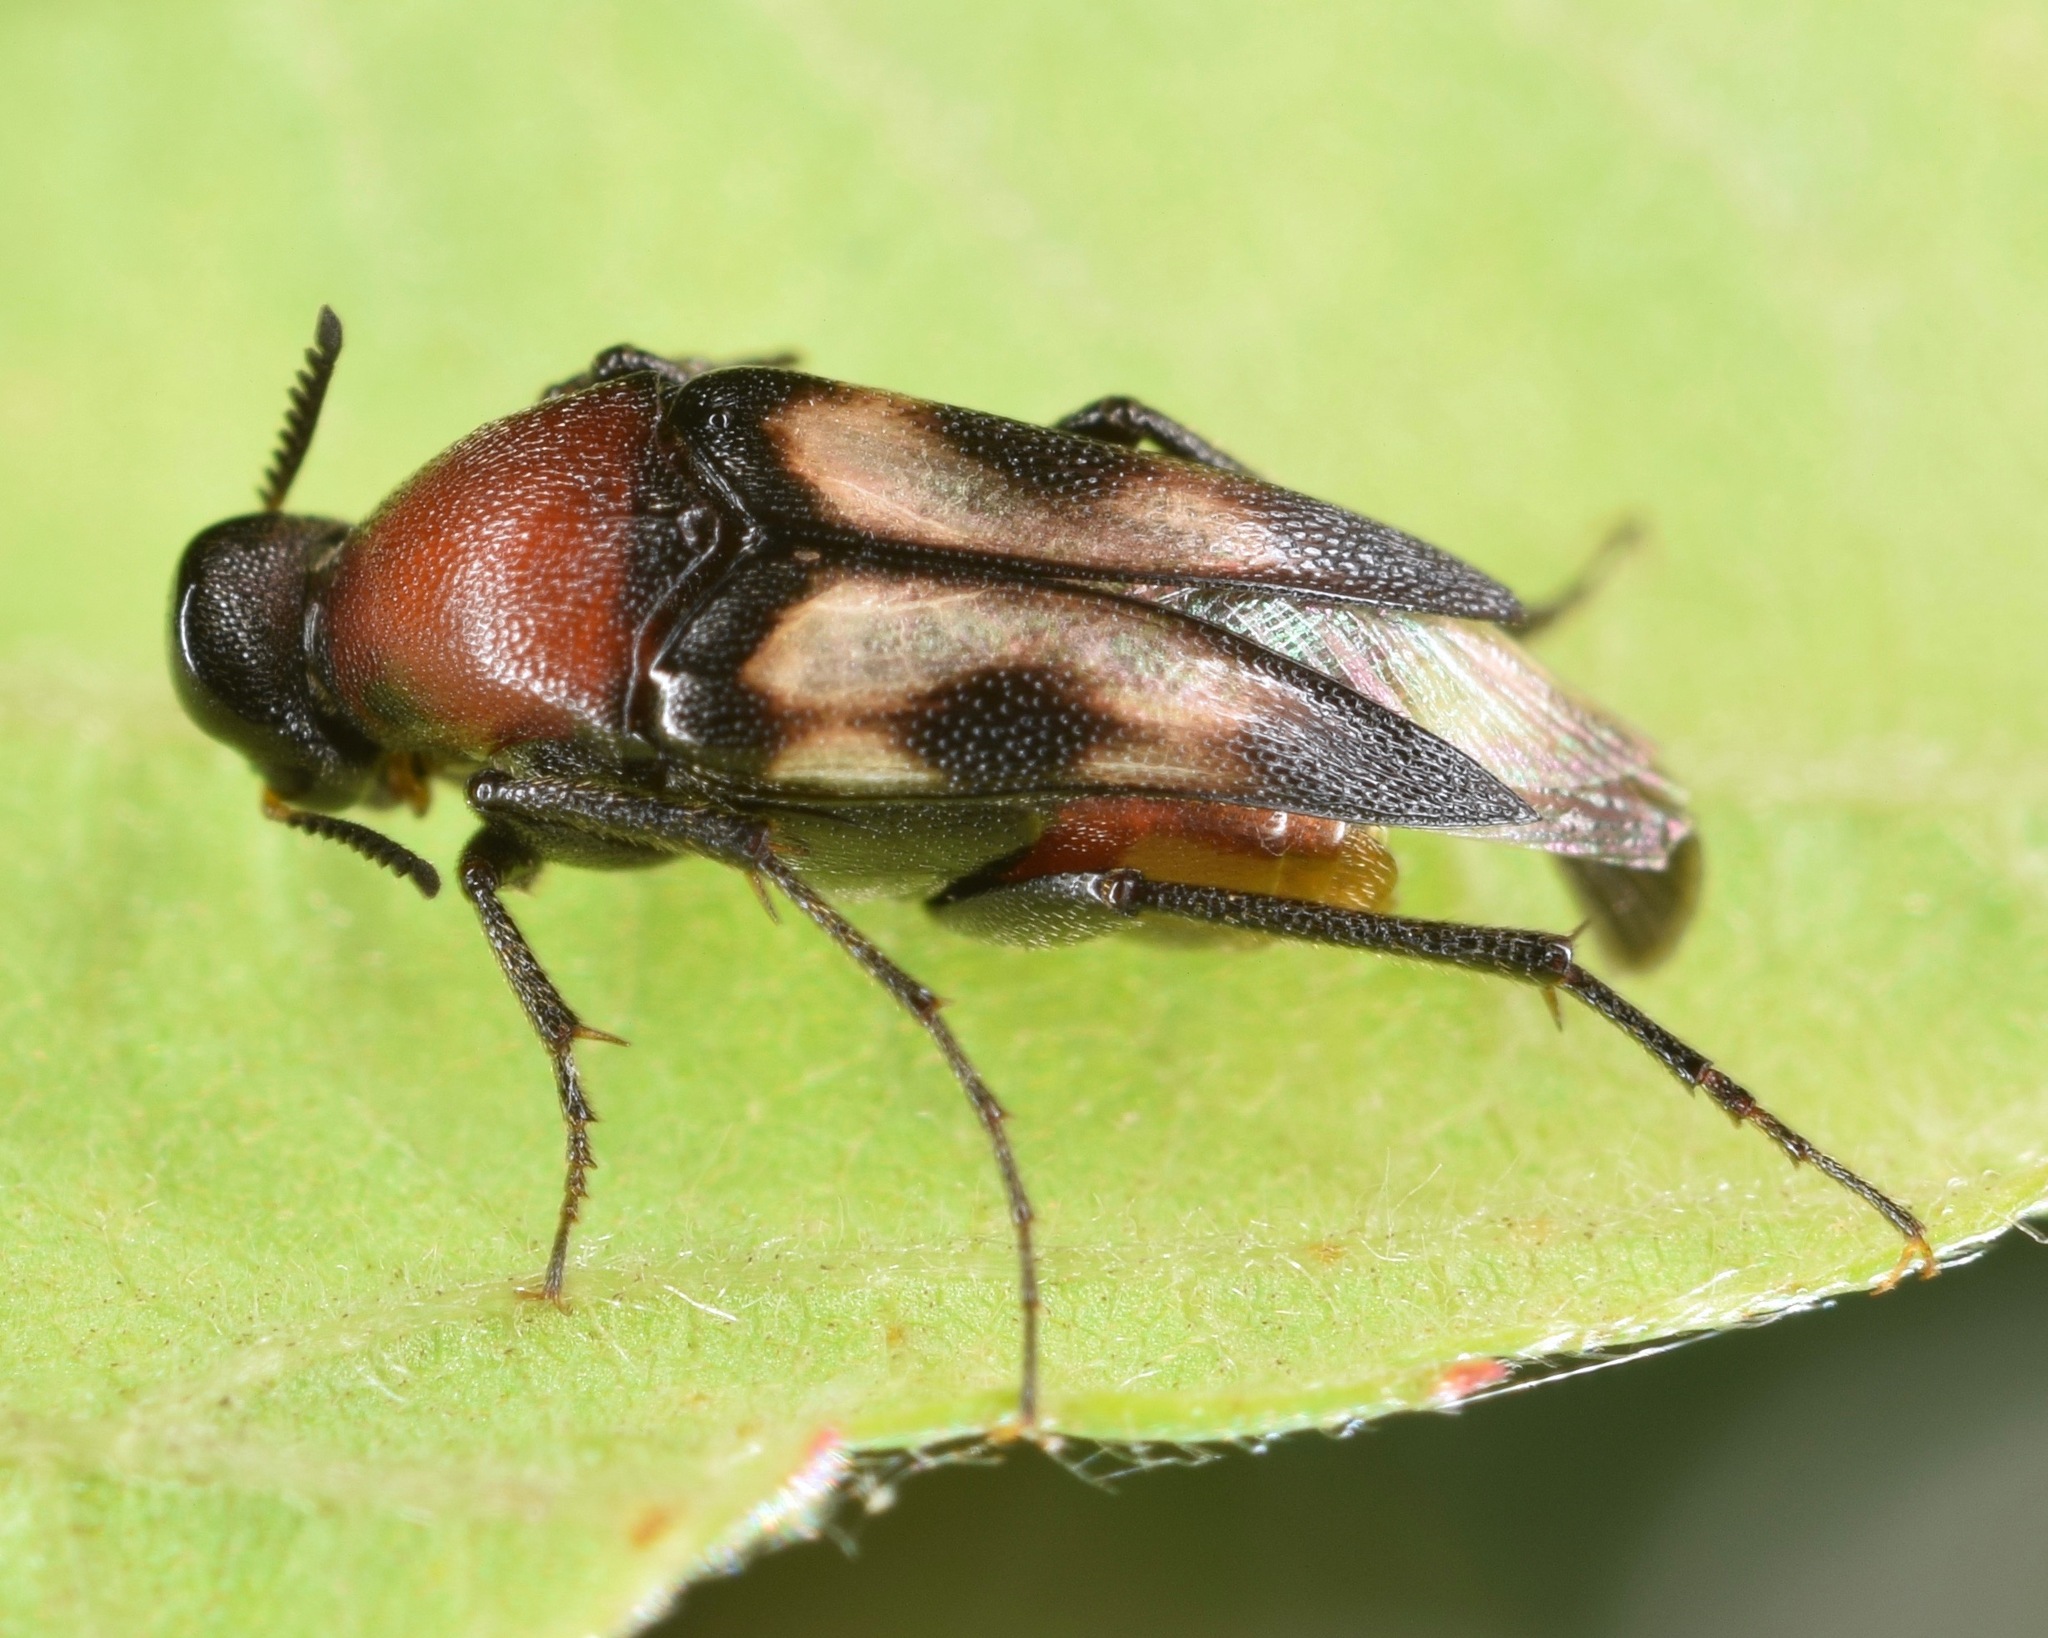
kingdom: Animalia
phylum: Arthropoda
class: Insecta
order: Coleoptera
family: Ripiphoridae
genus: Macrosiagon
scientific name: Macrosiagon pectinata
